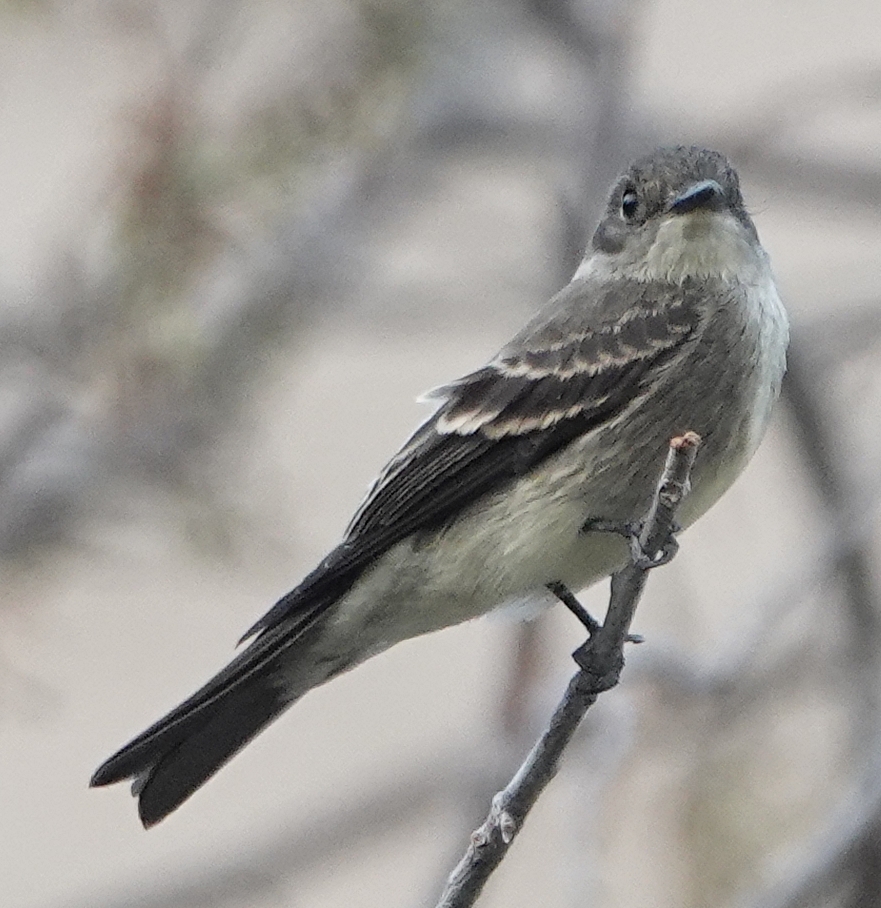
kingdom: Animalia
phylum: Chordata
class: Aves
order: Passeriformes
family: Tyrannidae
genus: Contopus
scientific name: Contopus sordidulus
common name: Western wood-pewee
